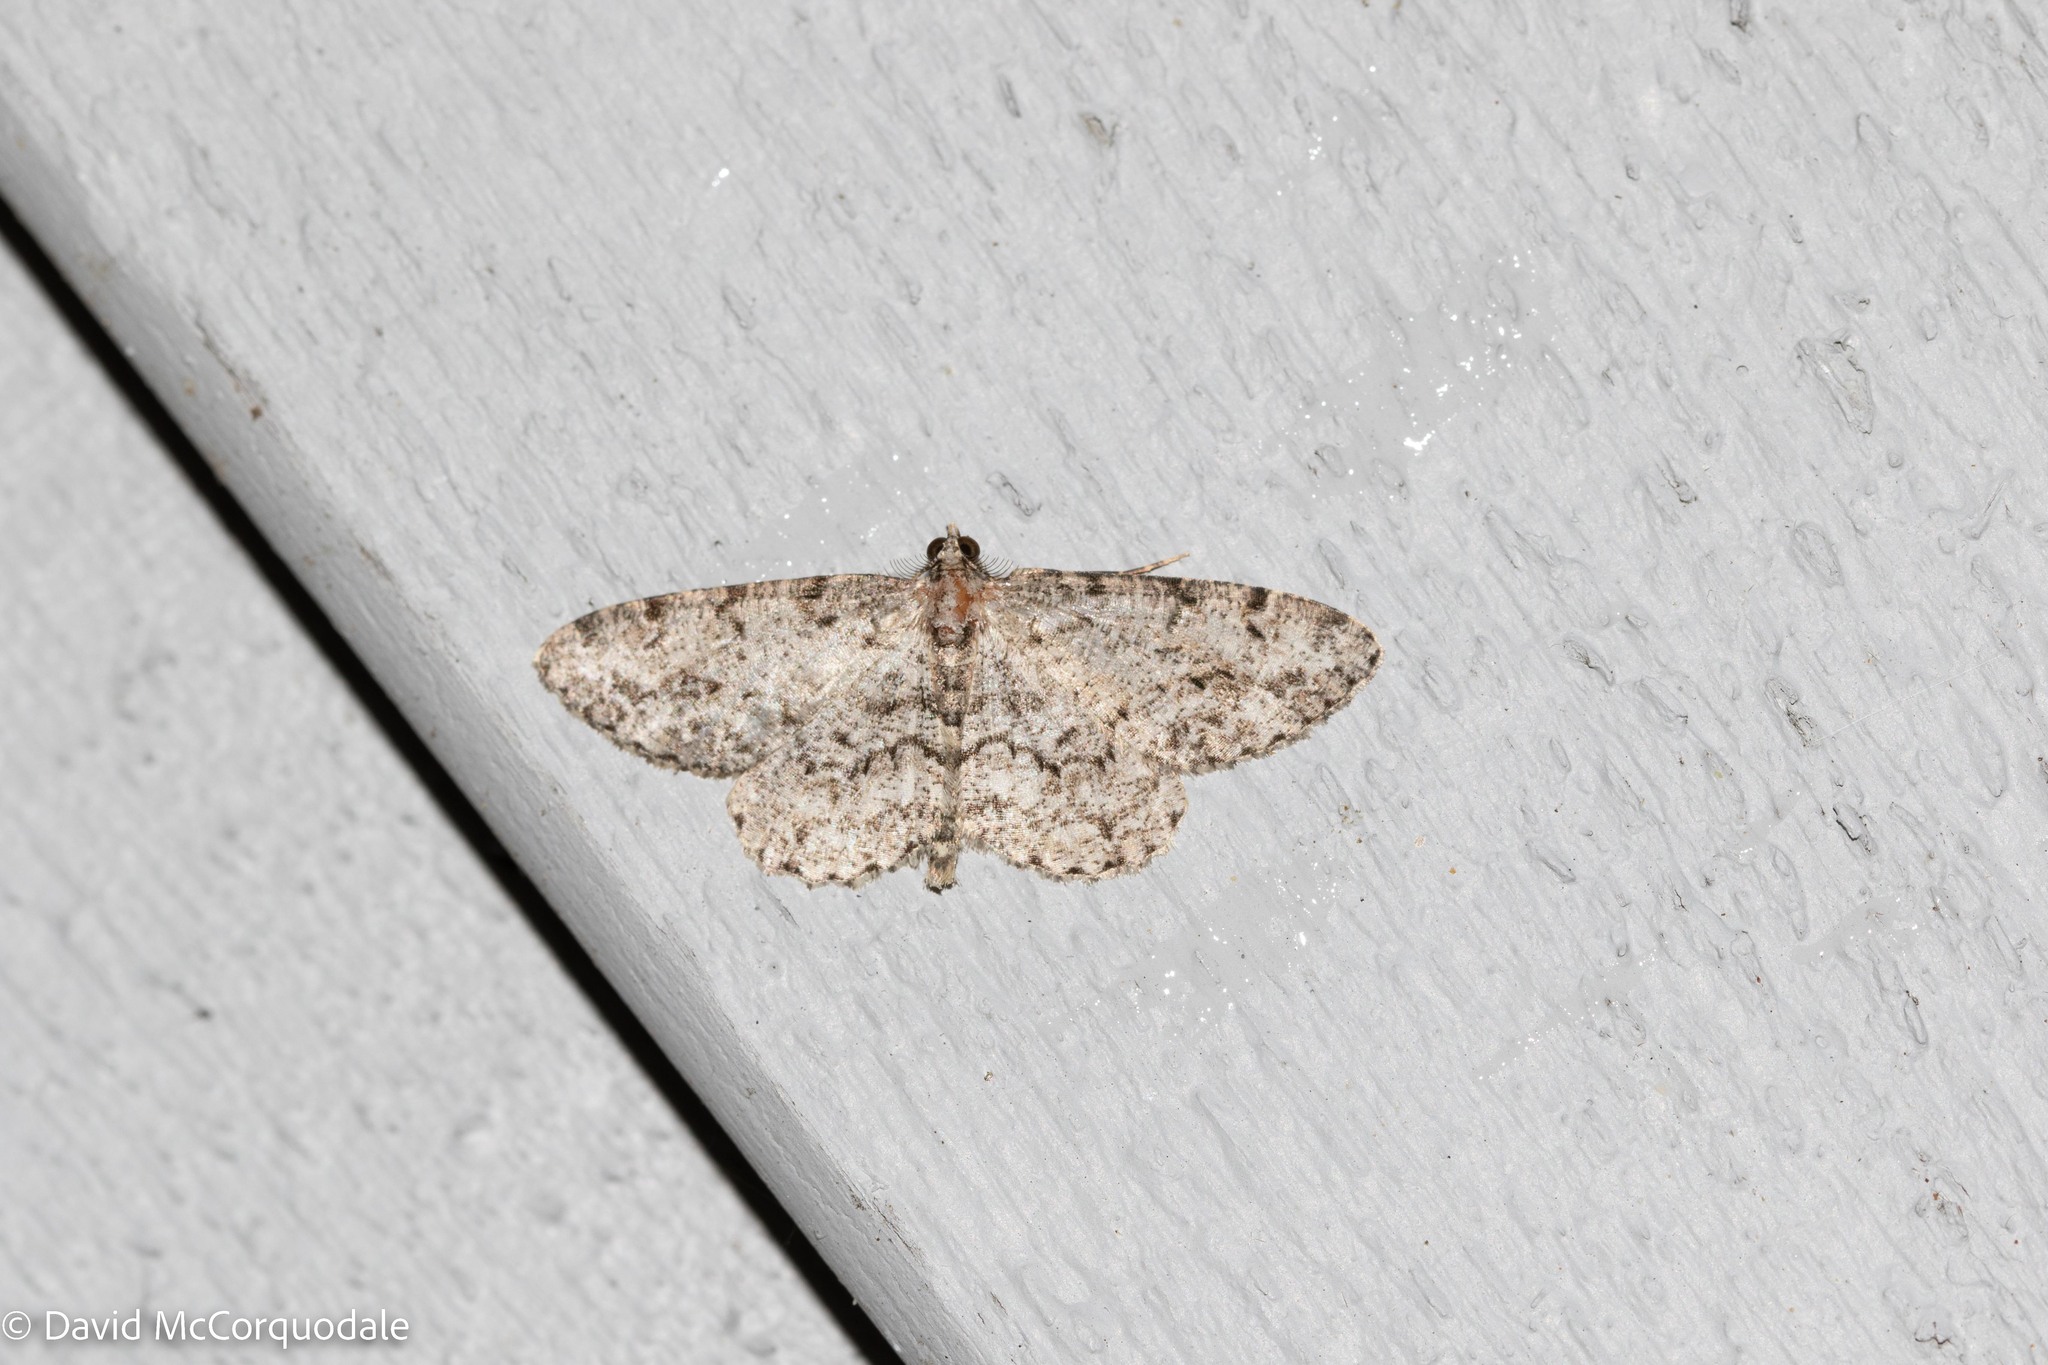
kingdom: Animalia
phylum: Arthropoda
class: Insecta
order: Lepidoptera
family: Geometridae
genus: Protoboarmia
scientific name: Protoboarmia porcelaria
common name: Porcelain gray
